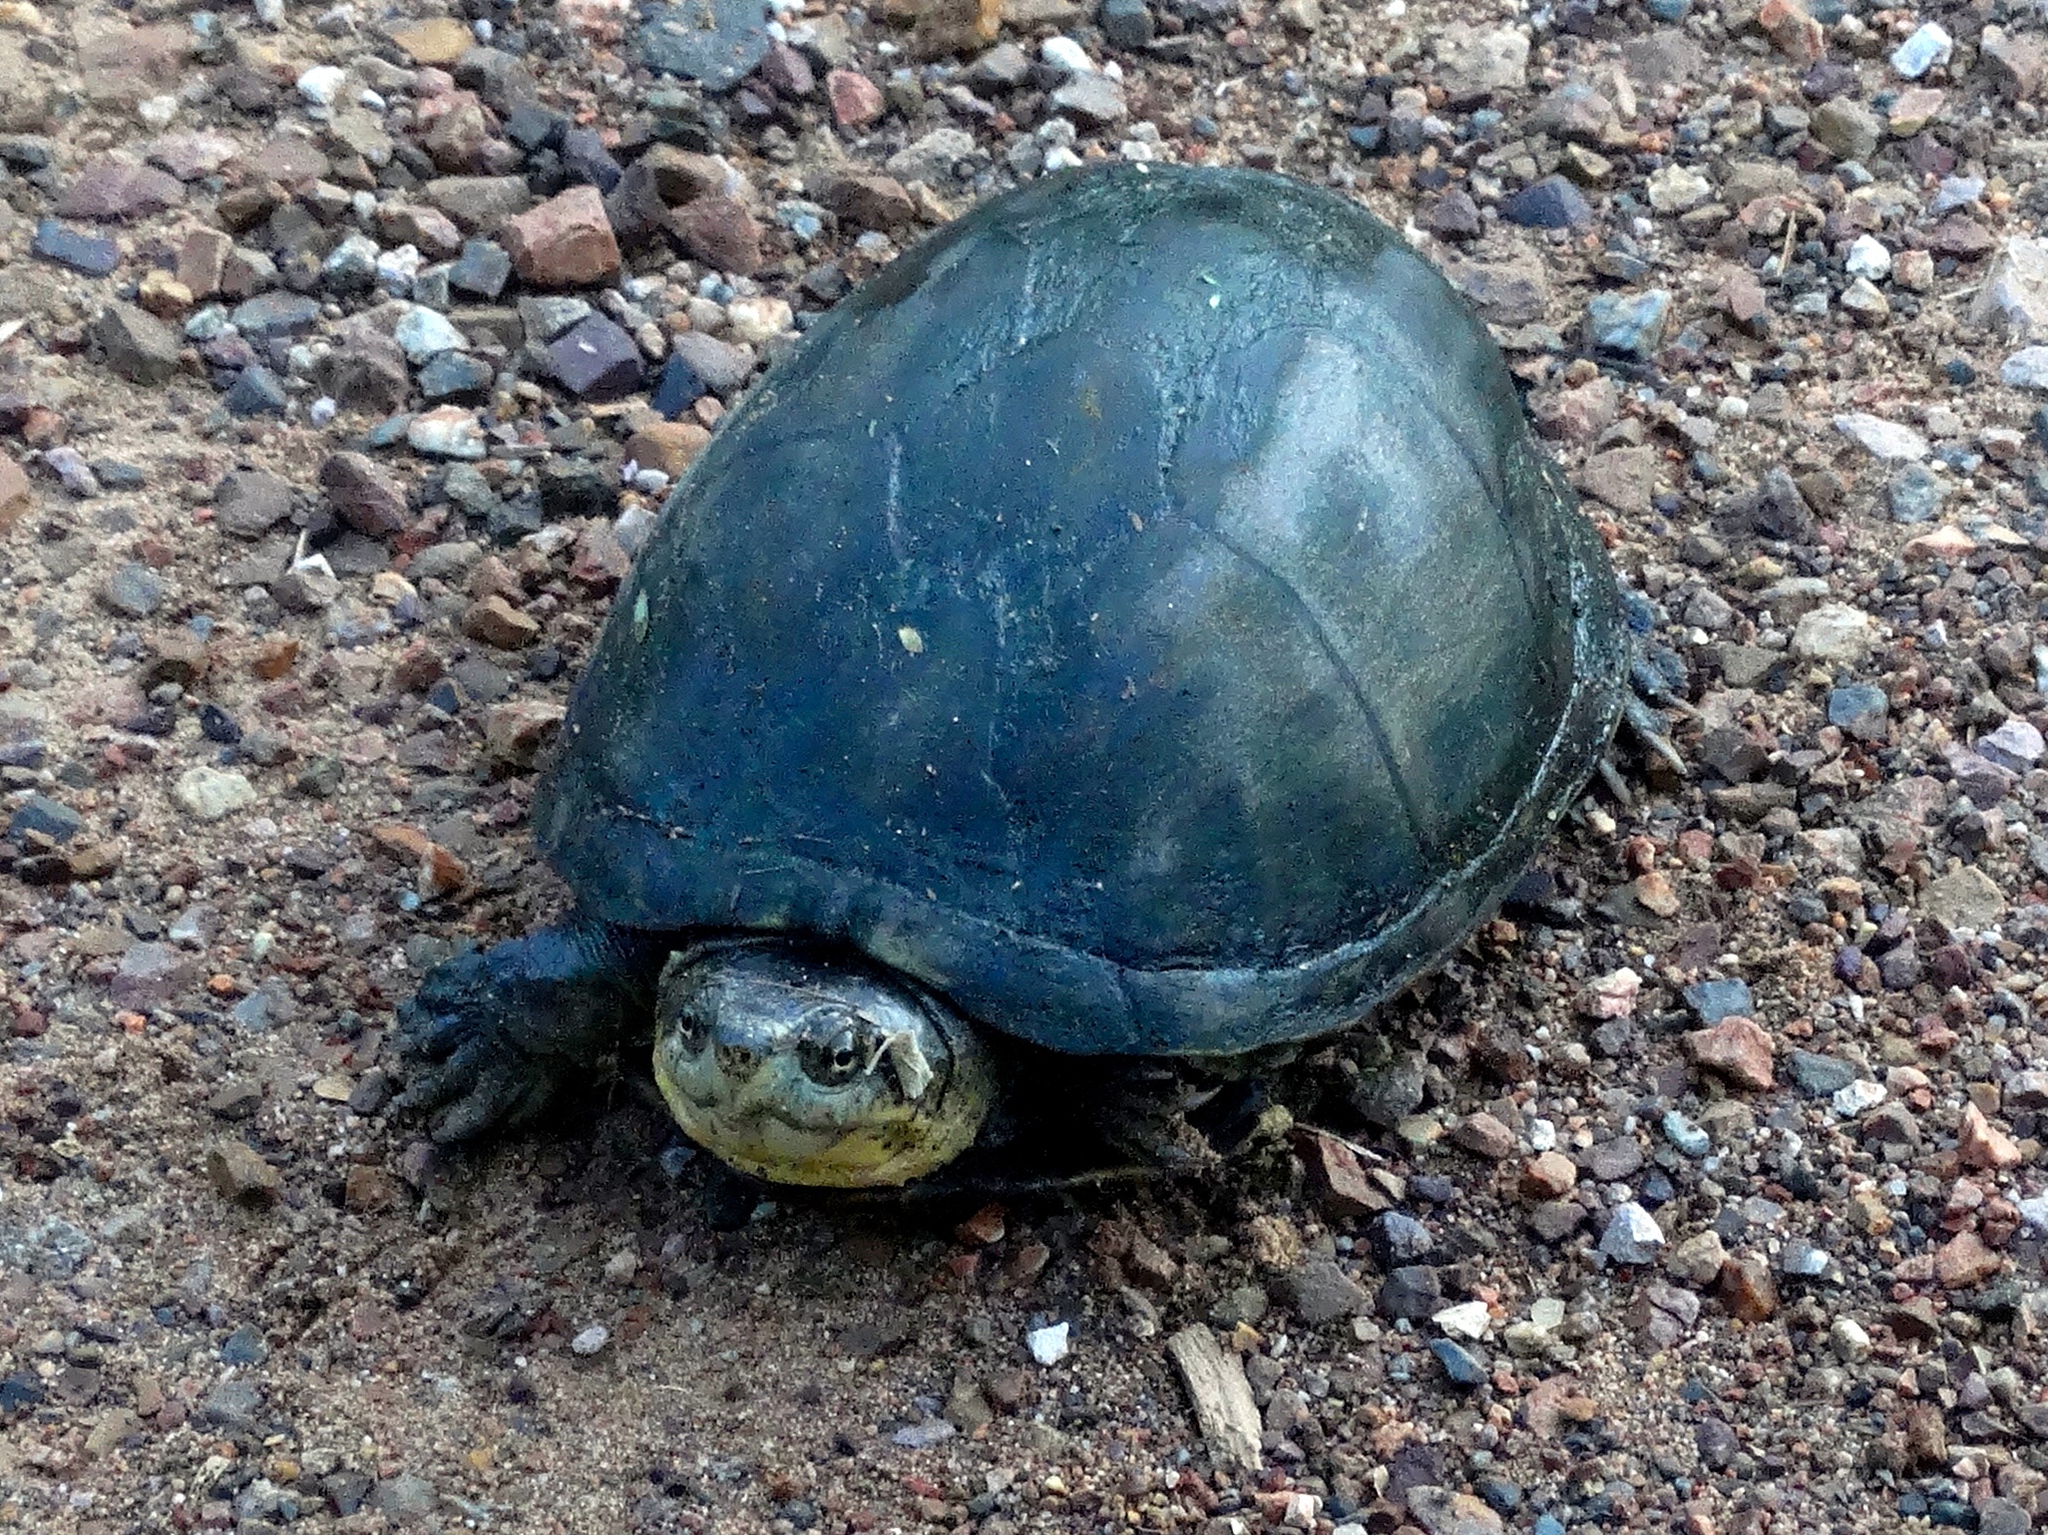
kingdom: Animalia
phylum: Chordata
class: Testudines
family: Kinosternidae
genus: Kinosternon
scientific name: Kinosternon integrum
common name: Mexican mud turtle
